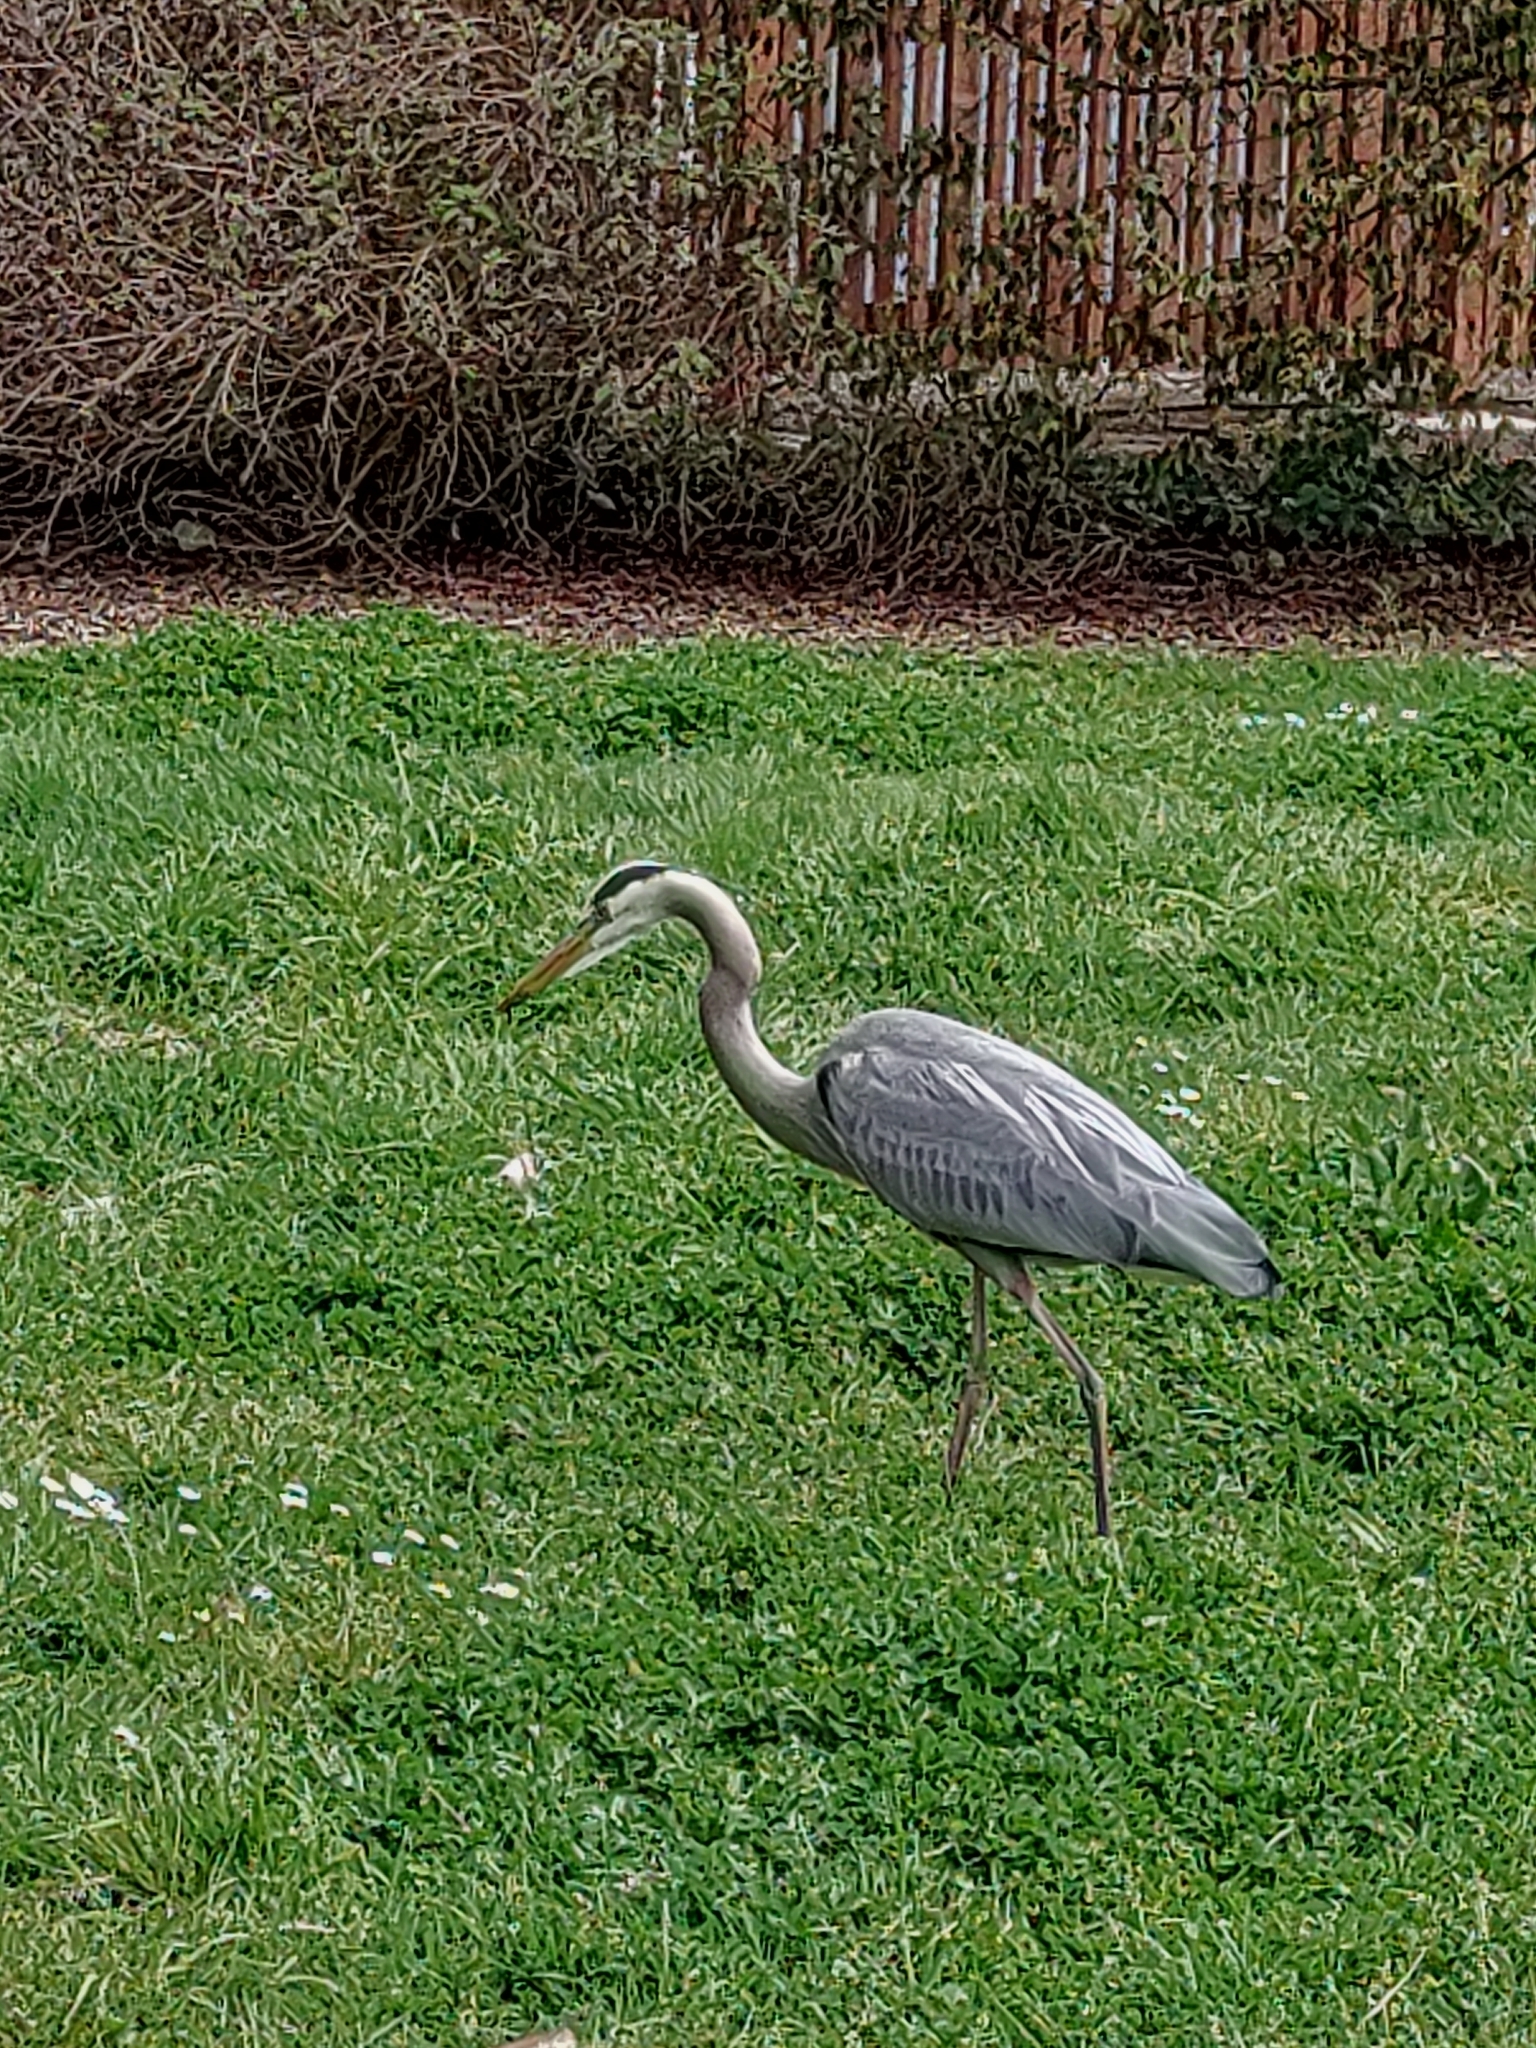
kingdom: Animalia
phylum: Chordata
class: Aves
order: Pelecaniformes
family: Ardeidae
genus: Ardea
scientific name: Ardea herodias
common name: Great blue heron
